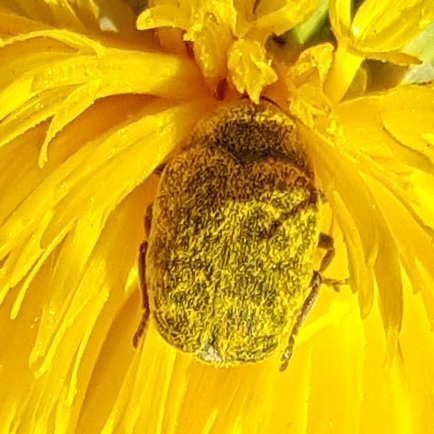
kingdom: Animalia
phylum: Arthropoda
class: Insecta
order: Coleoptera
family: Curculionidae
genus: Larinus
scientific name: Larinus curtus
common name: Weevil
